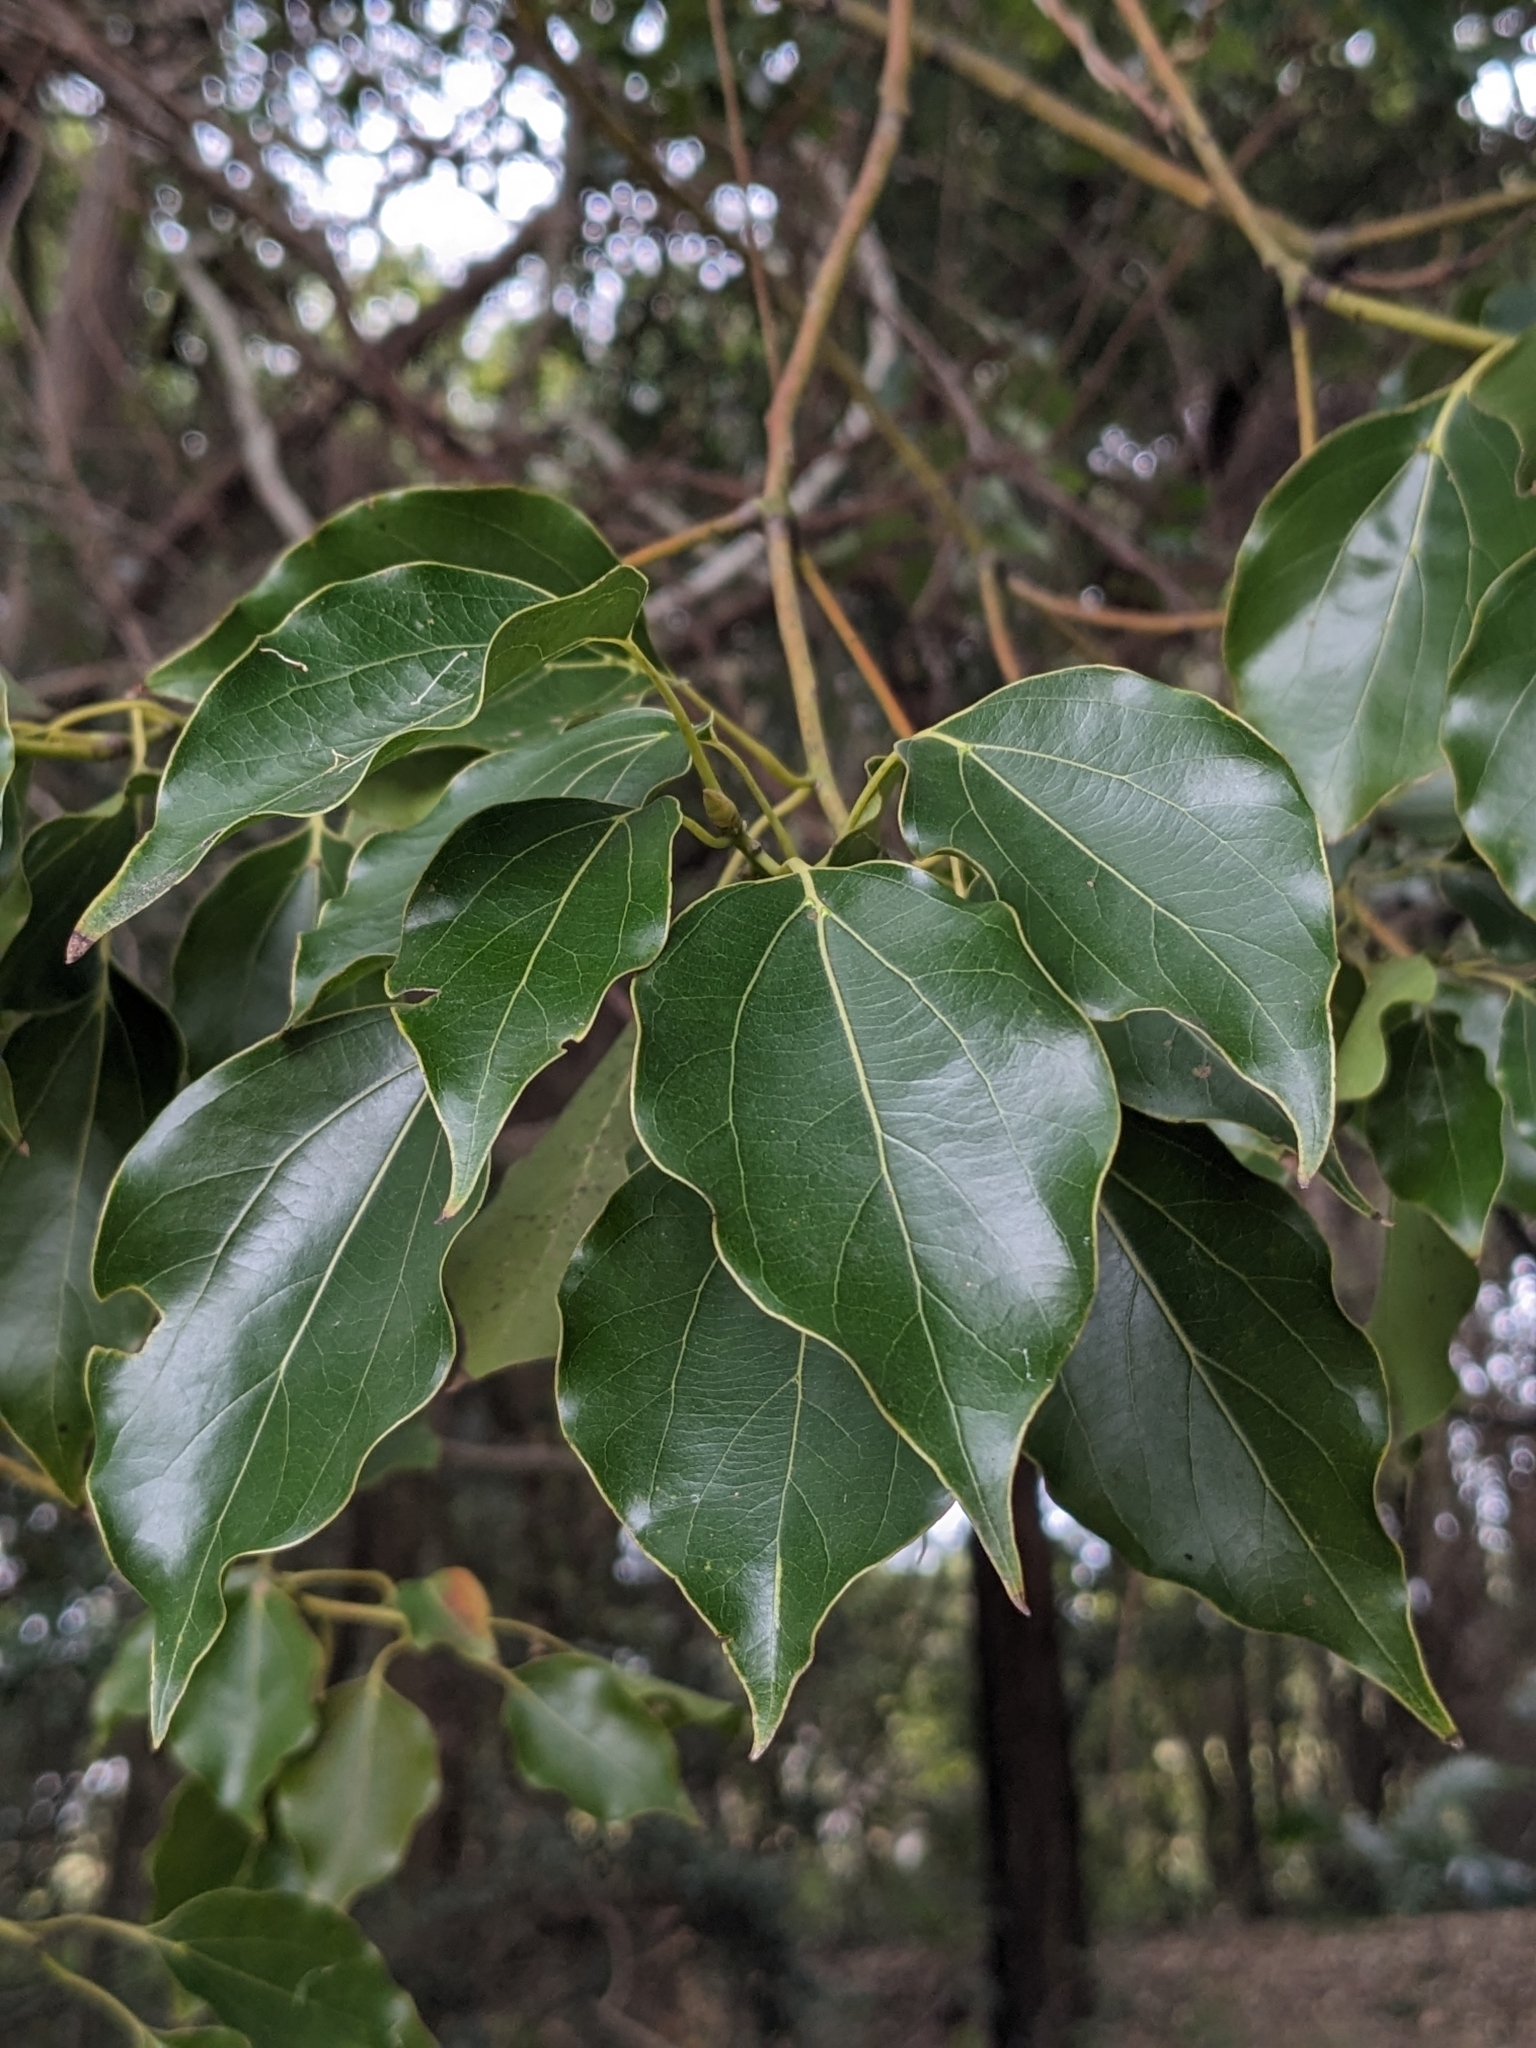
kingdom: Plantae
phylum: Tracheophyta
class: Magnoliopsida
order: Laurales
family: Lauraceae
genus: Cinnamomum
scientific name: Cinnamomum camphora
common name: Camphortree
